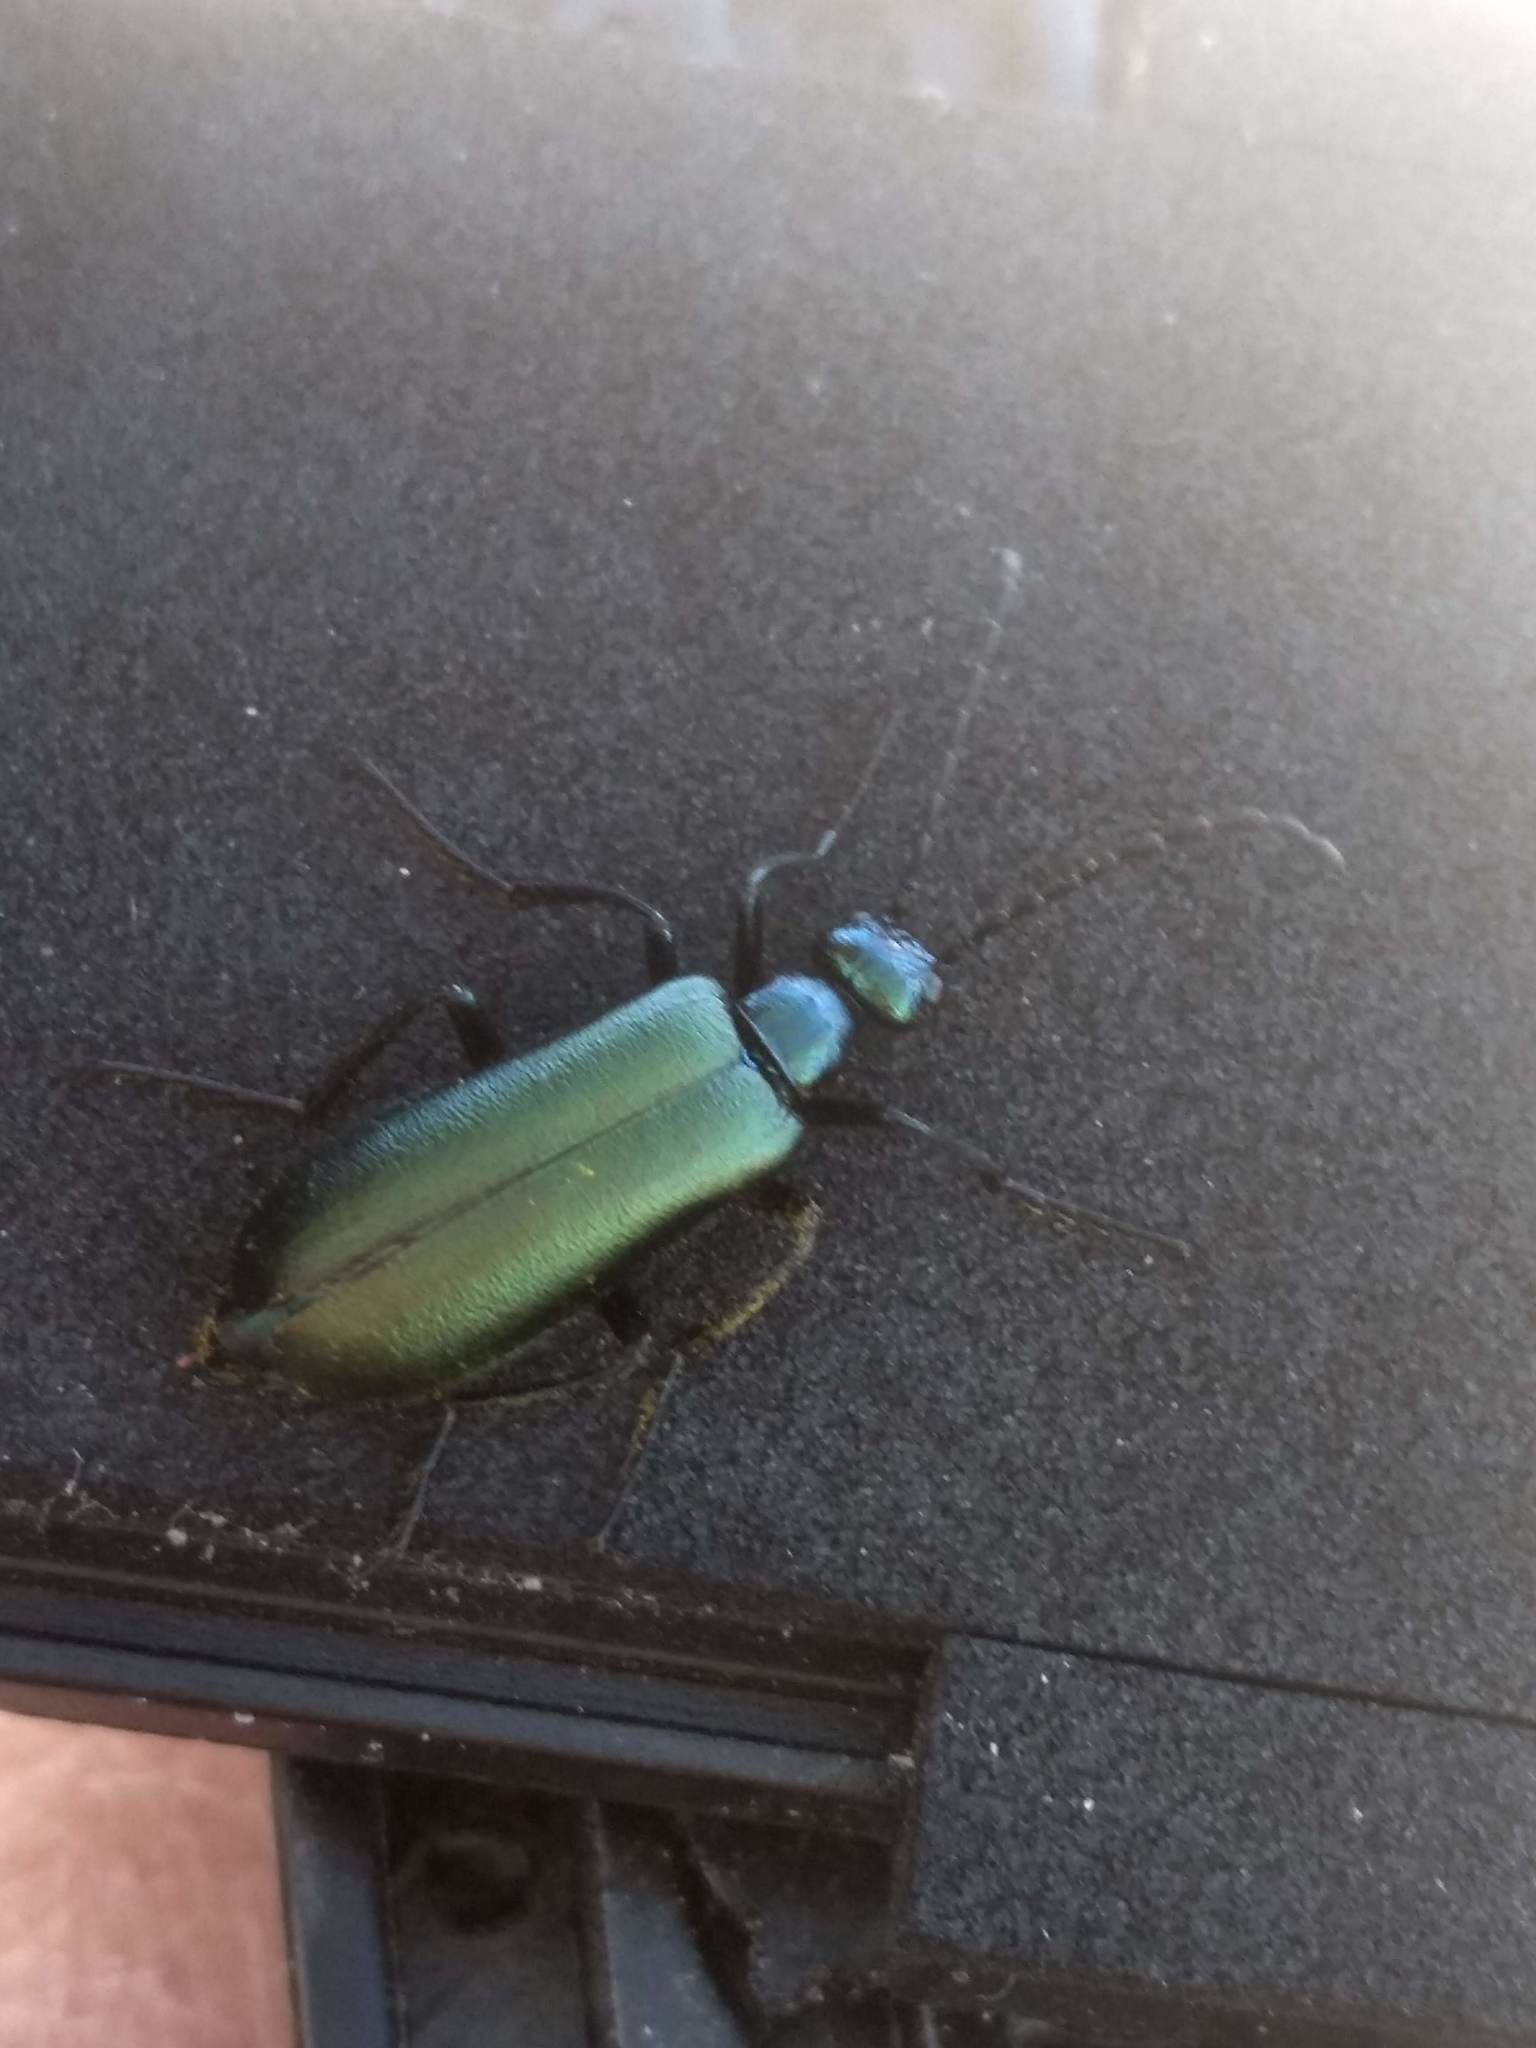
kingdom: Animalia
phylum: Arthropoda
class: Insecta
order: Coleoptera
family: Meloidae
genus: Lytta
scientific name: Lytta stygica
